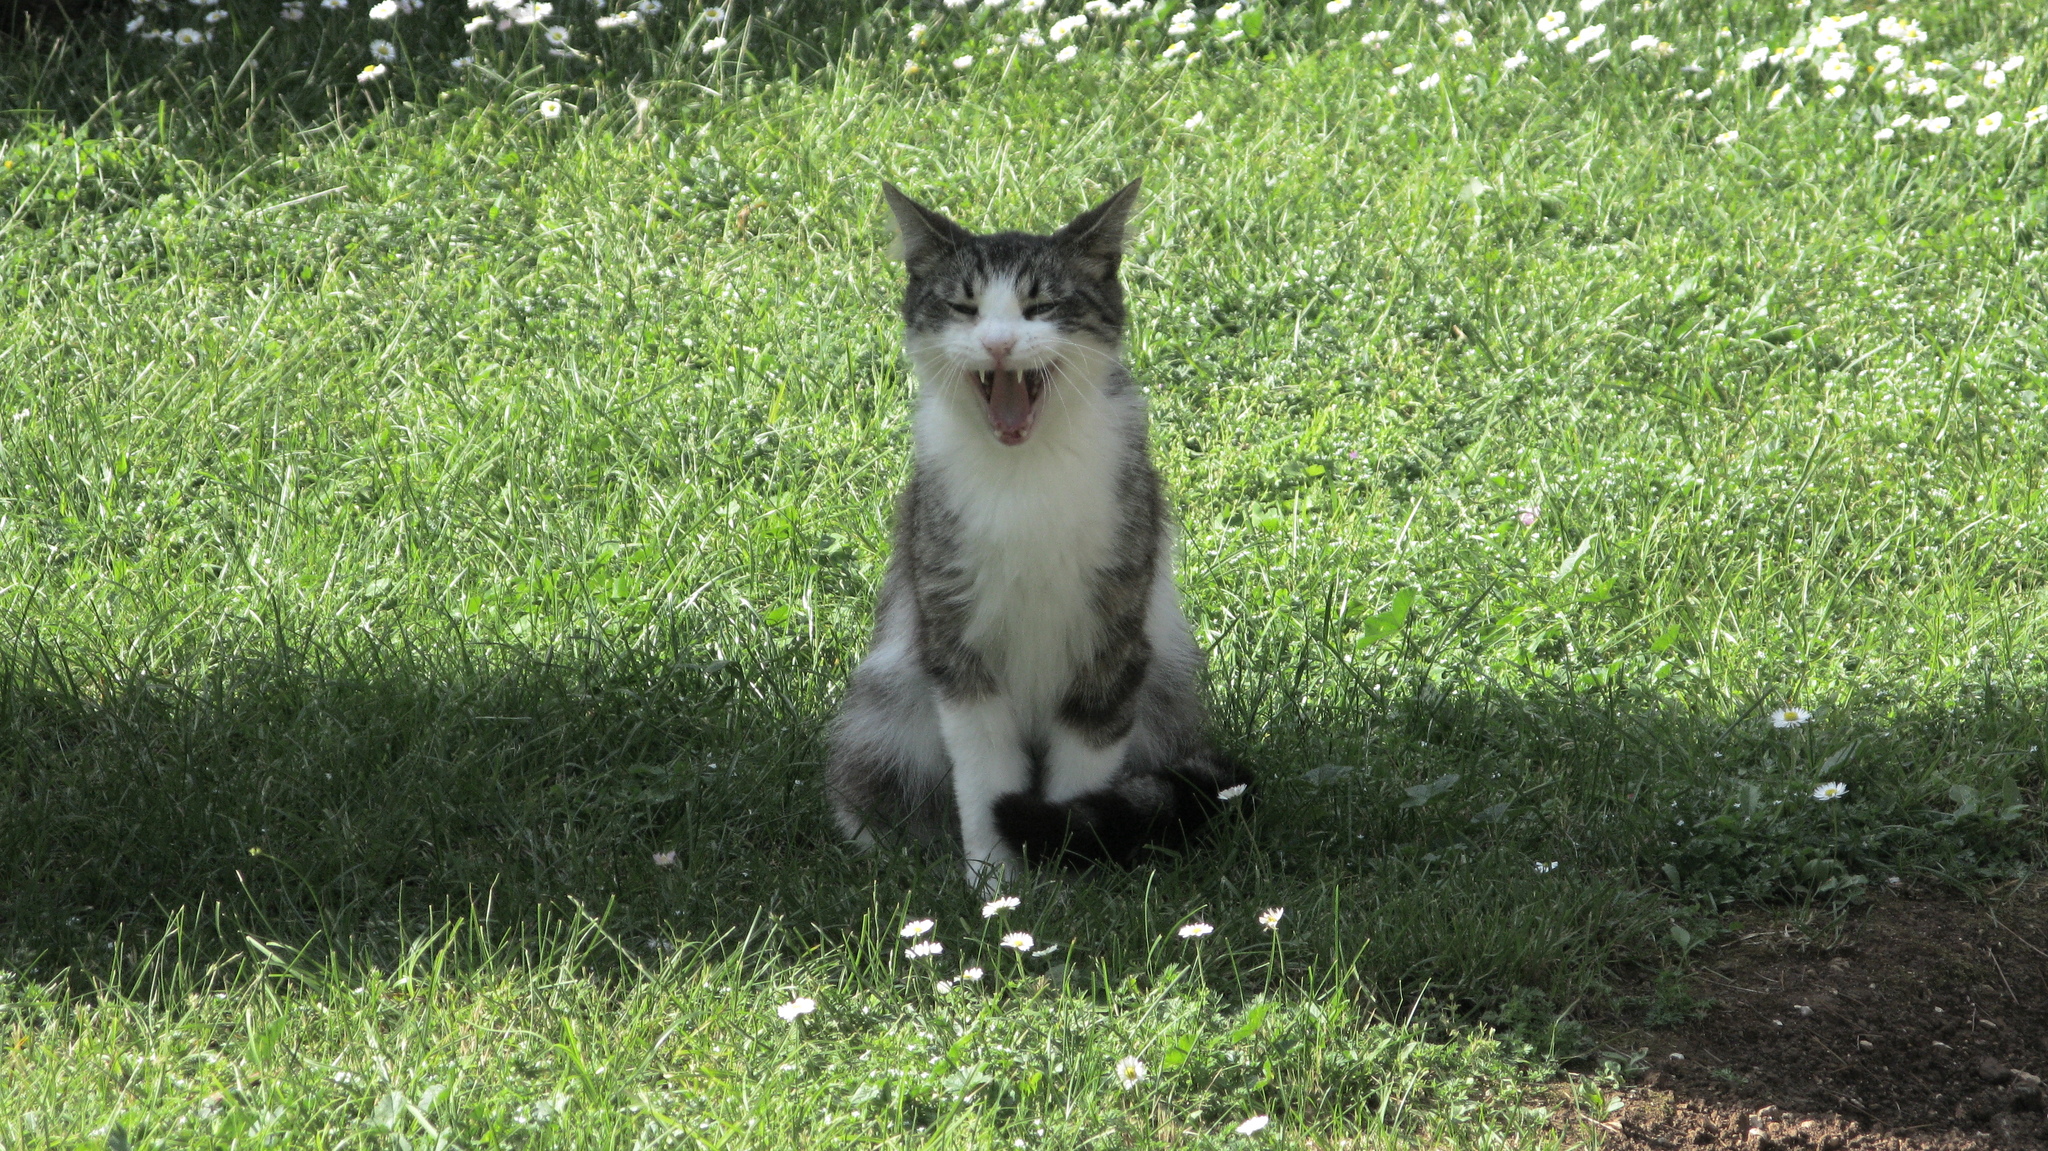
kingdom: Animalia
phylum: Chordata
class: Mammalia
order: Carnivora
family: Felidae
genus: Felis
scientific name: Felis catus
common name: Domestic cat
